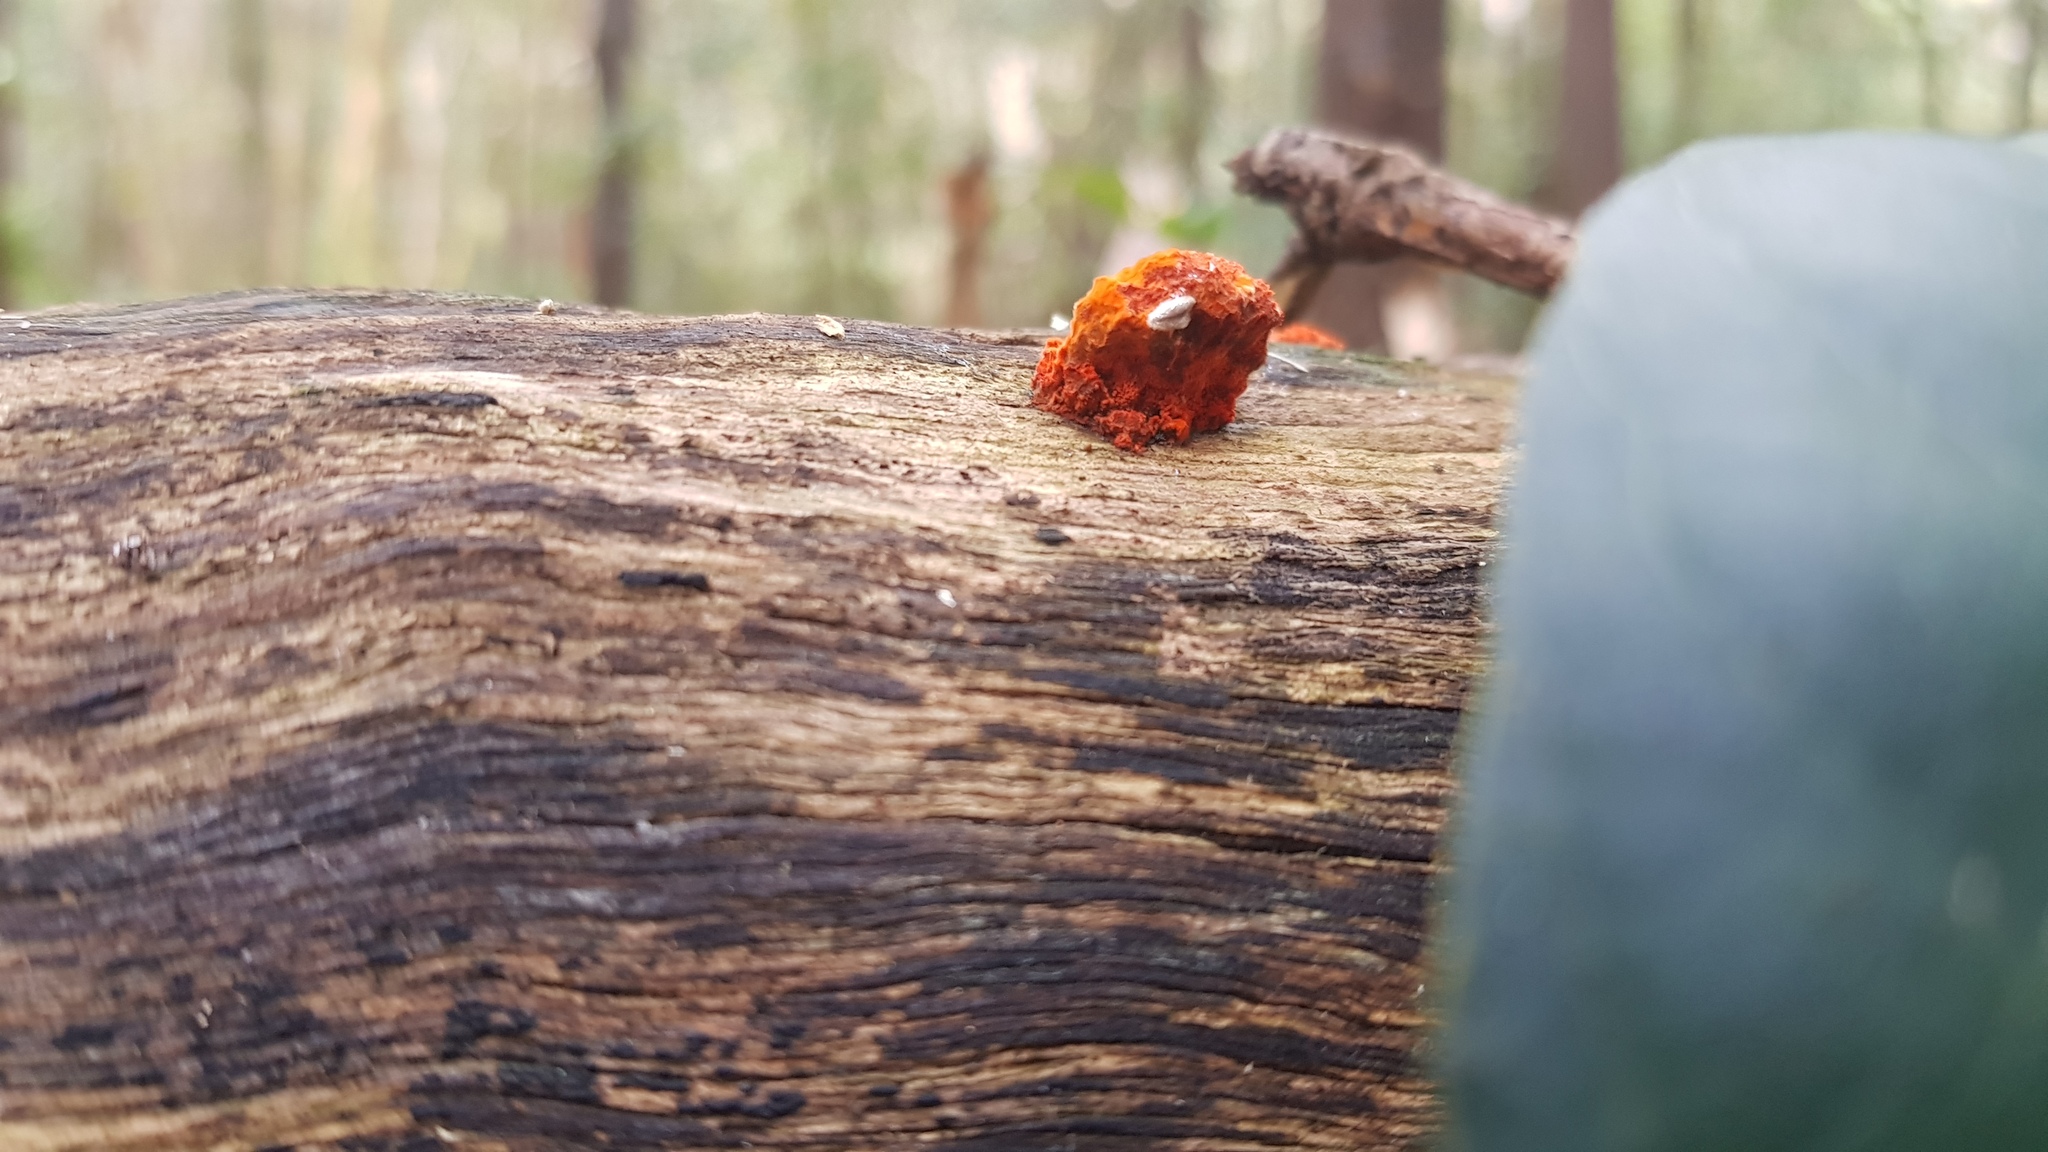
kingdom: Fungi
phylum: Basidiomycota
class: Agaricomycetes
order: Polyporales
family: Polyporaceae
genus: Trametes
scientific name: Trametes coccinea
